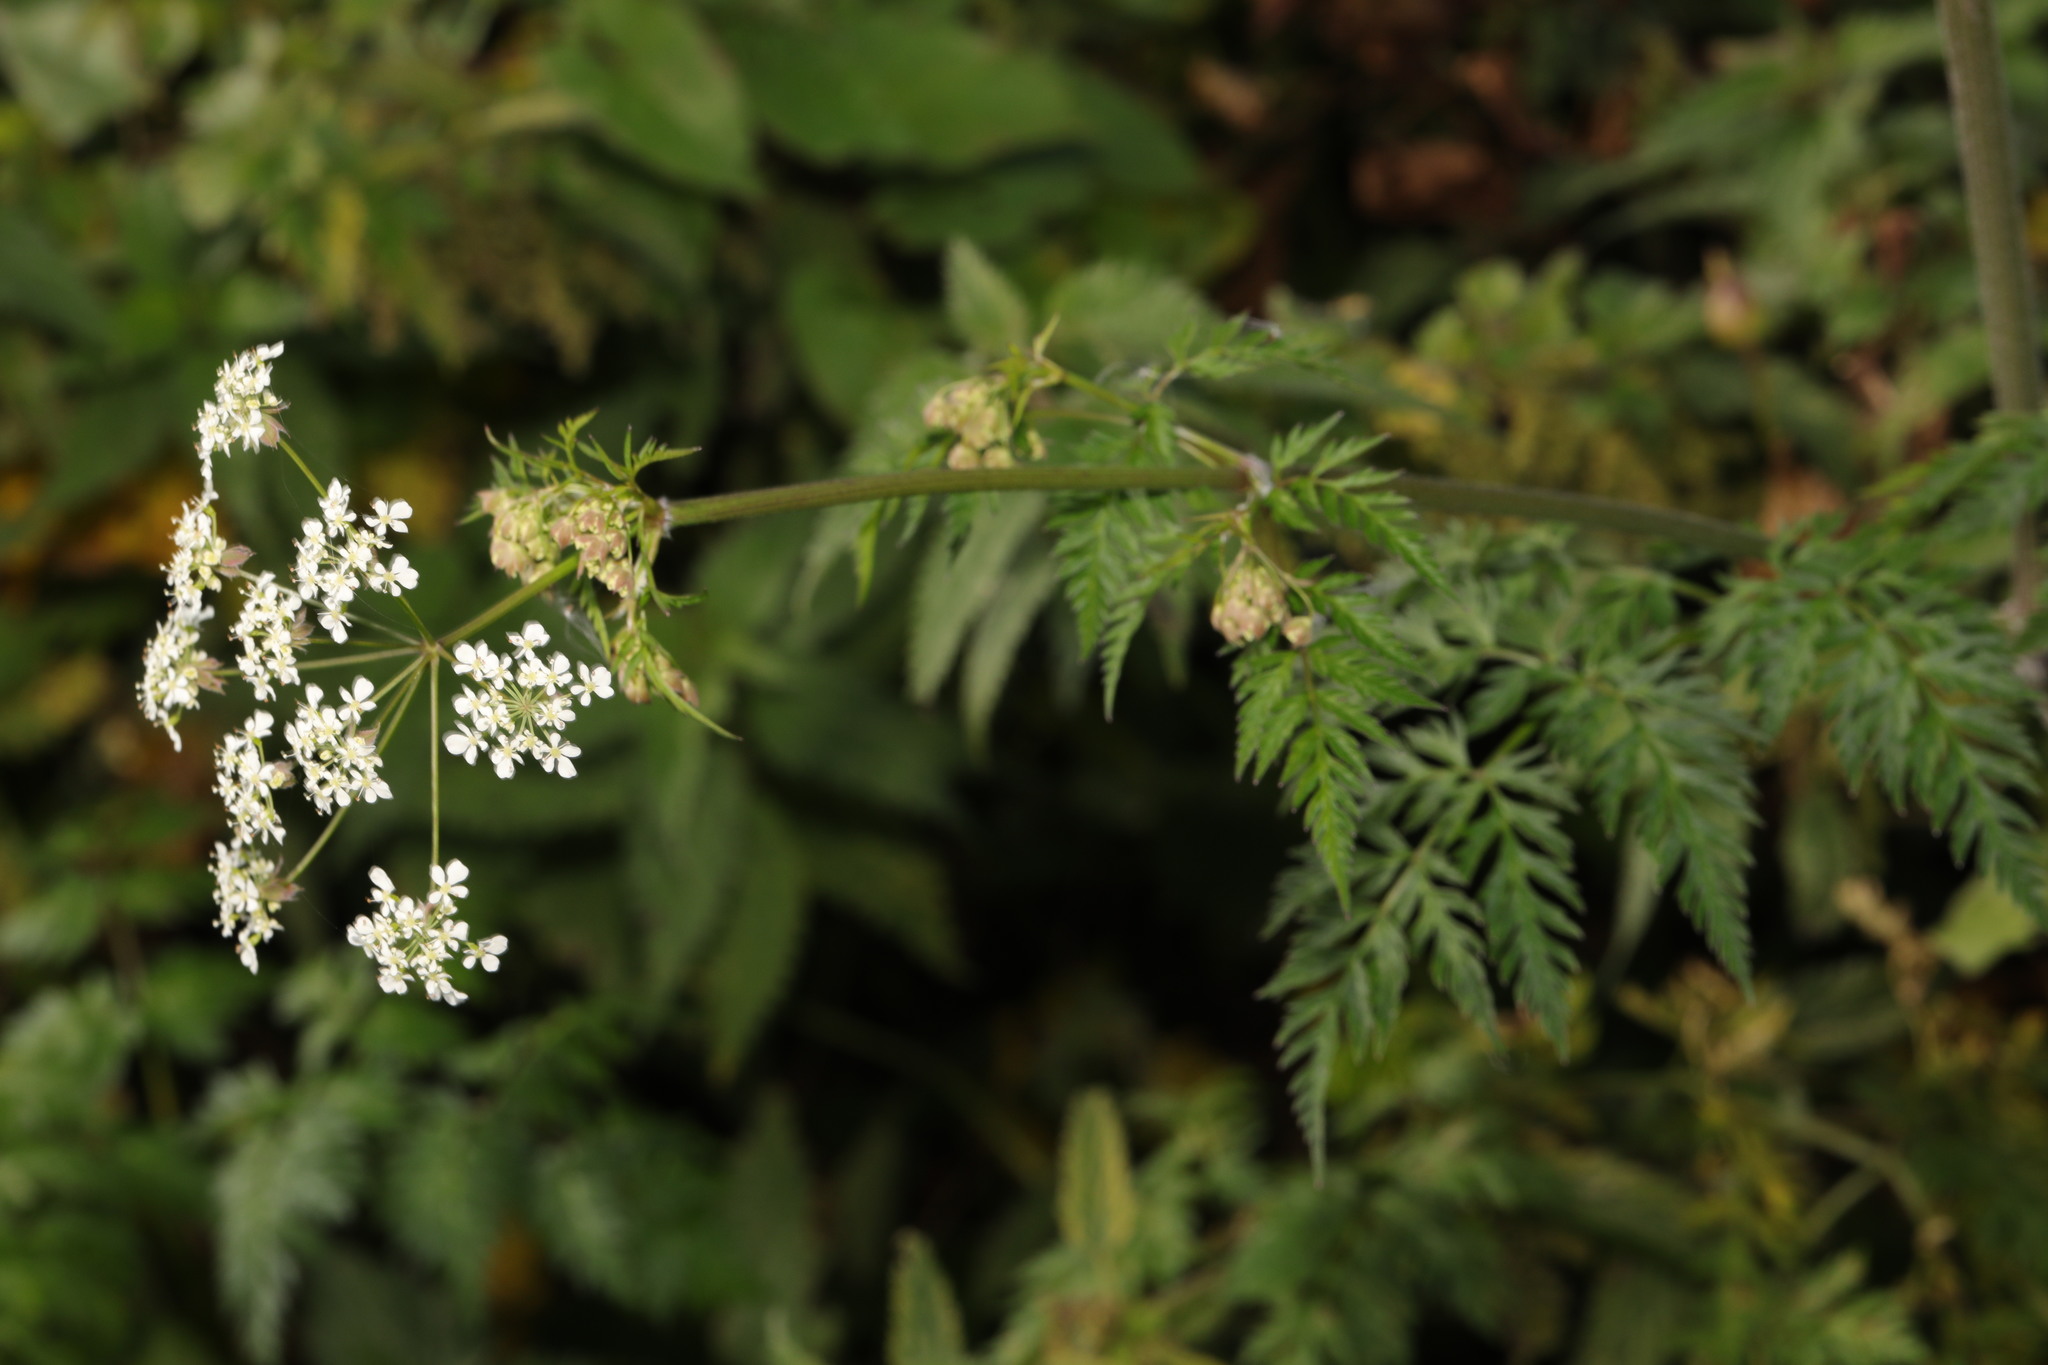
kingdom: Plantae
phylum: Tracheophyta
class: Magnoliopsida
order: Apiales
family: Apiaceae
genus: Anthriscus
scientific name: Anthriscus sylvestris
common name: Cow parsley
